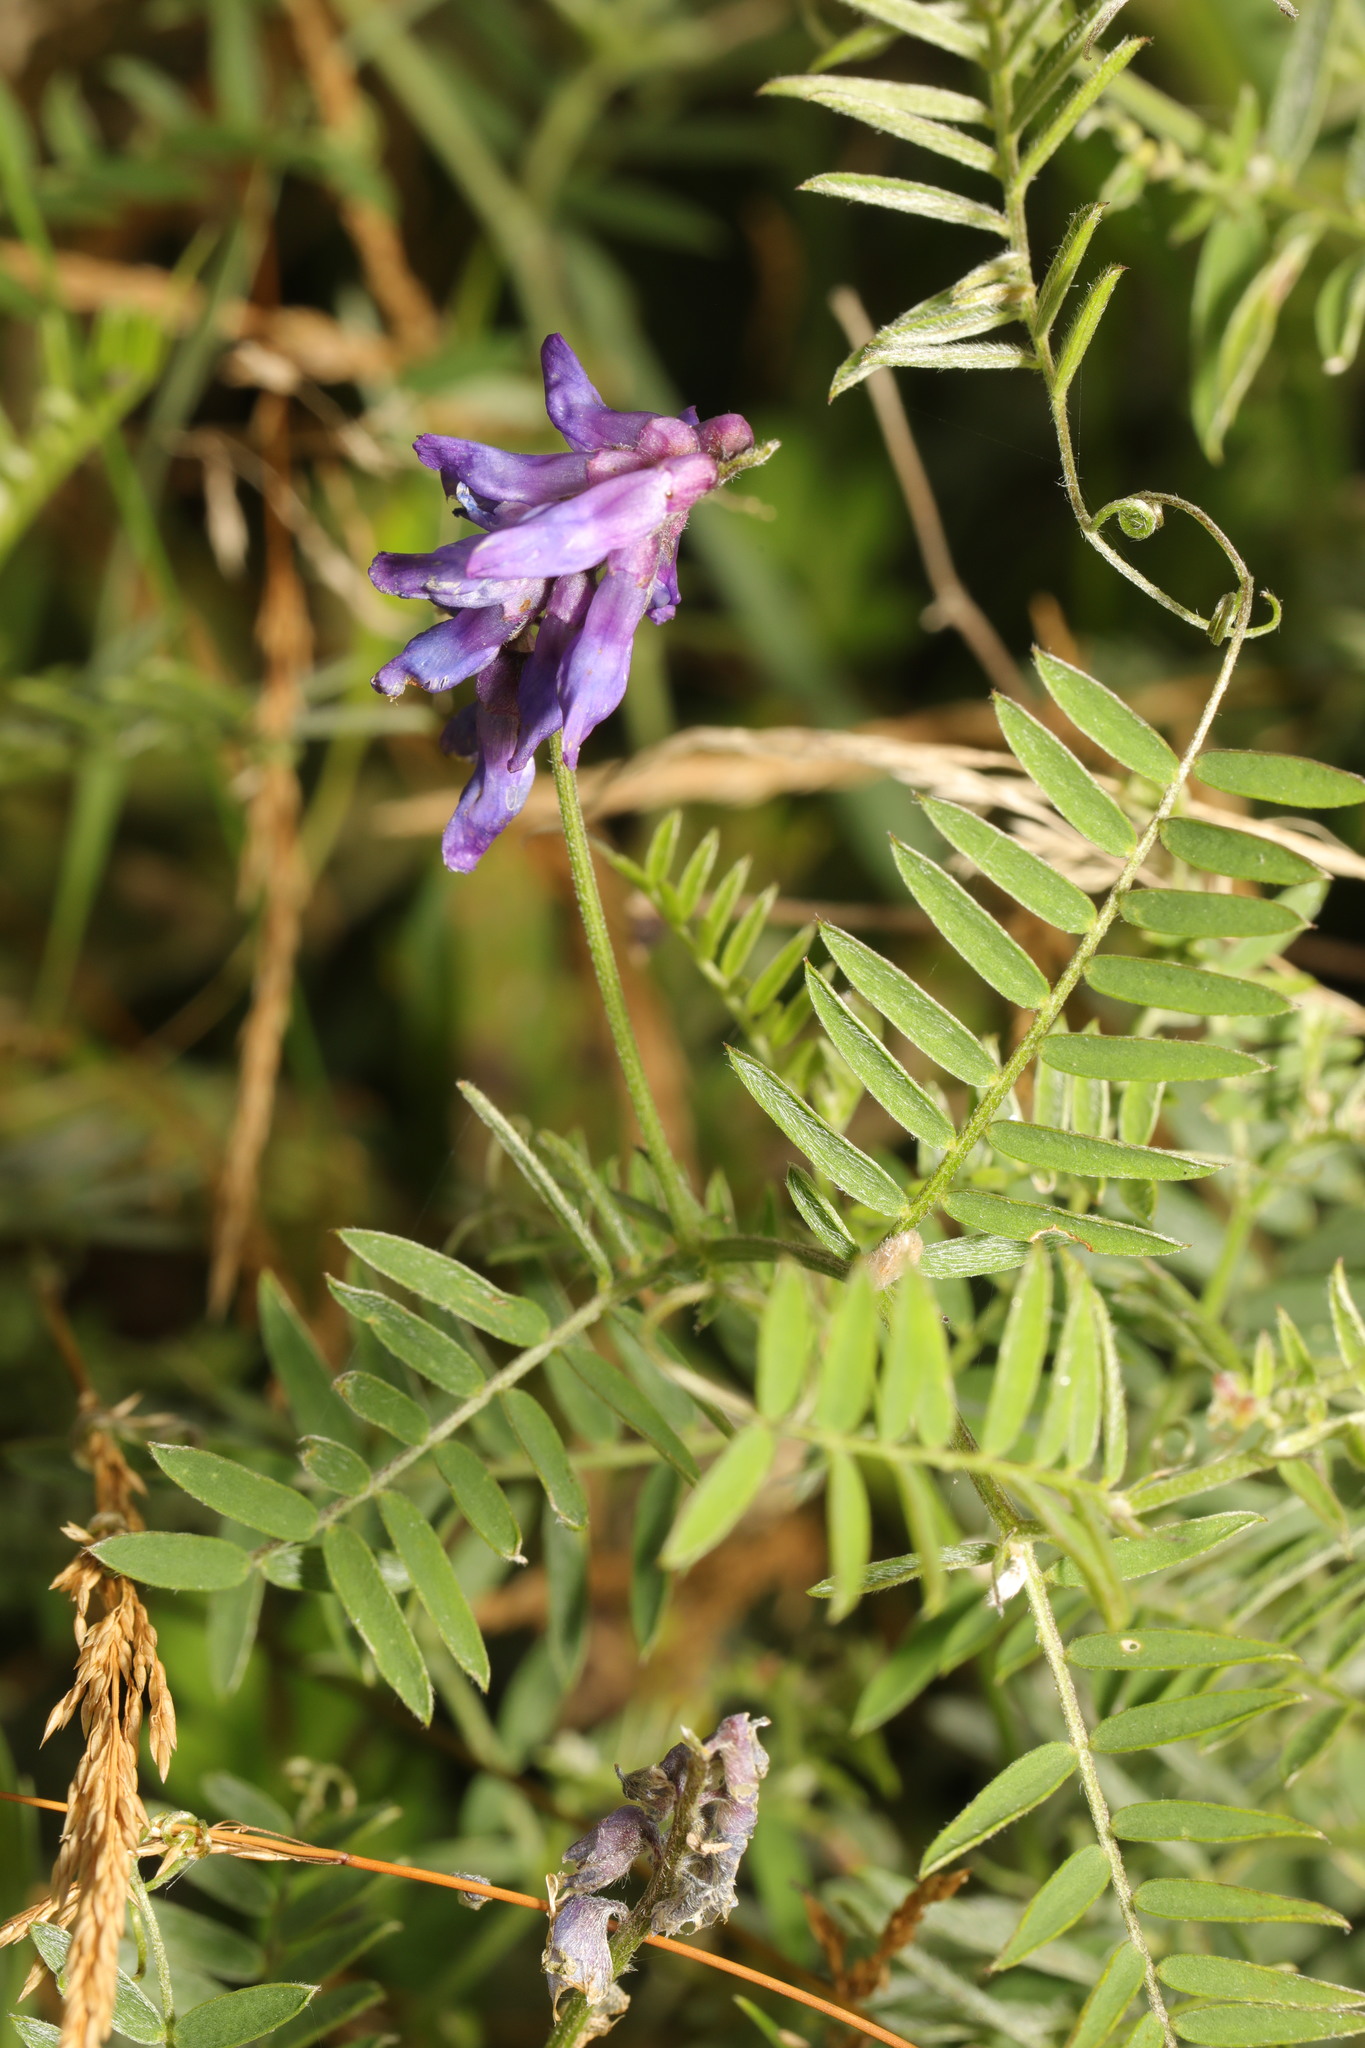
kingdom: Plantae
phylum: Tracheophyta
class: Magnoliopsida
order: Fabales
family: Fabaceae
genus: Vicia
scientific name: Vicia cracca
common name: Bird vetch
